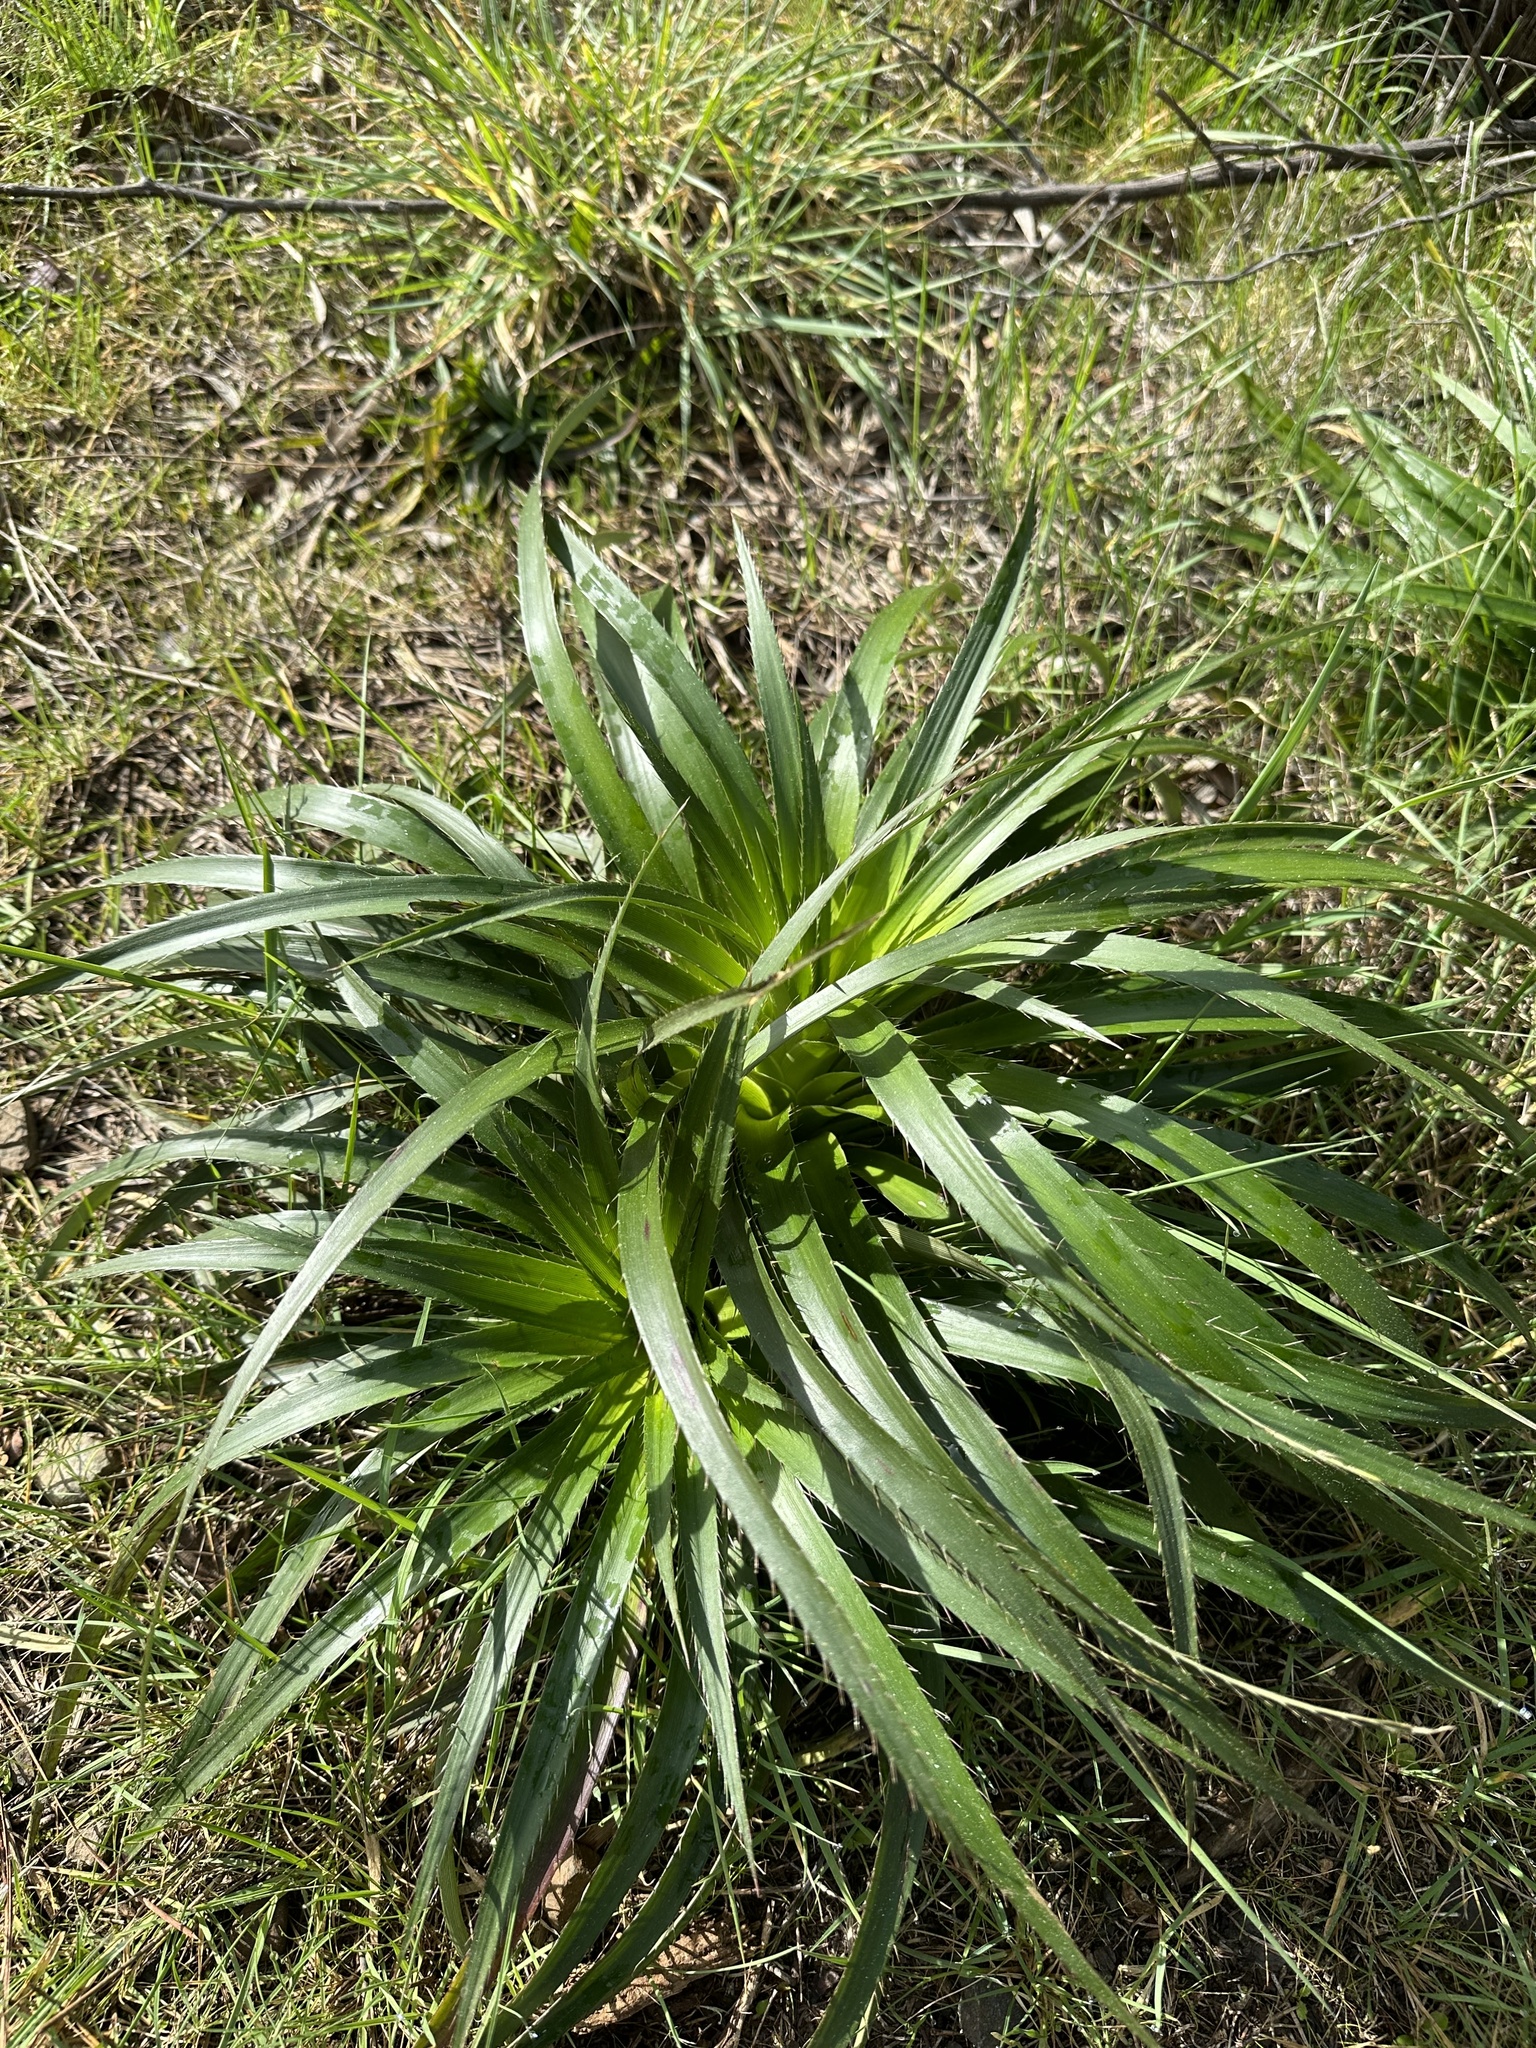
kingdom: Plantae
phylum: Tracheophyta
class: Magnoliopsida
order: Apiales
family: Apiaceae
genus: Eryngium
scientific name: Eryngium humboldtii
